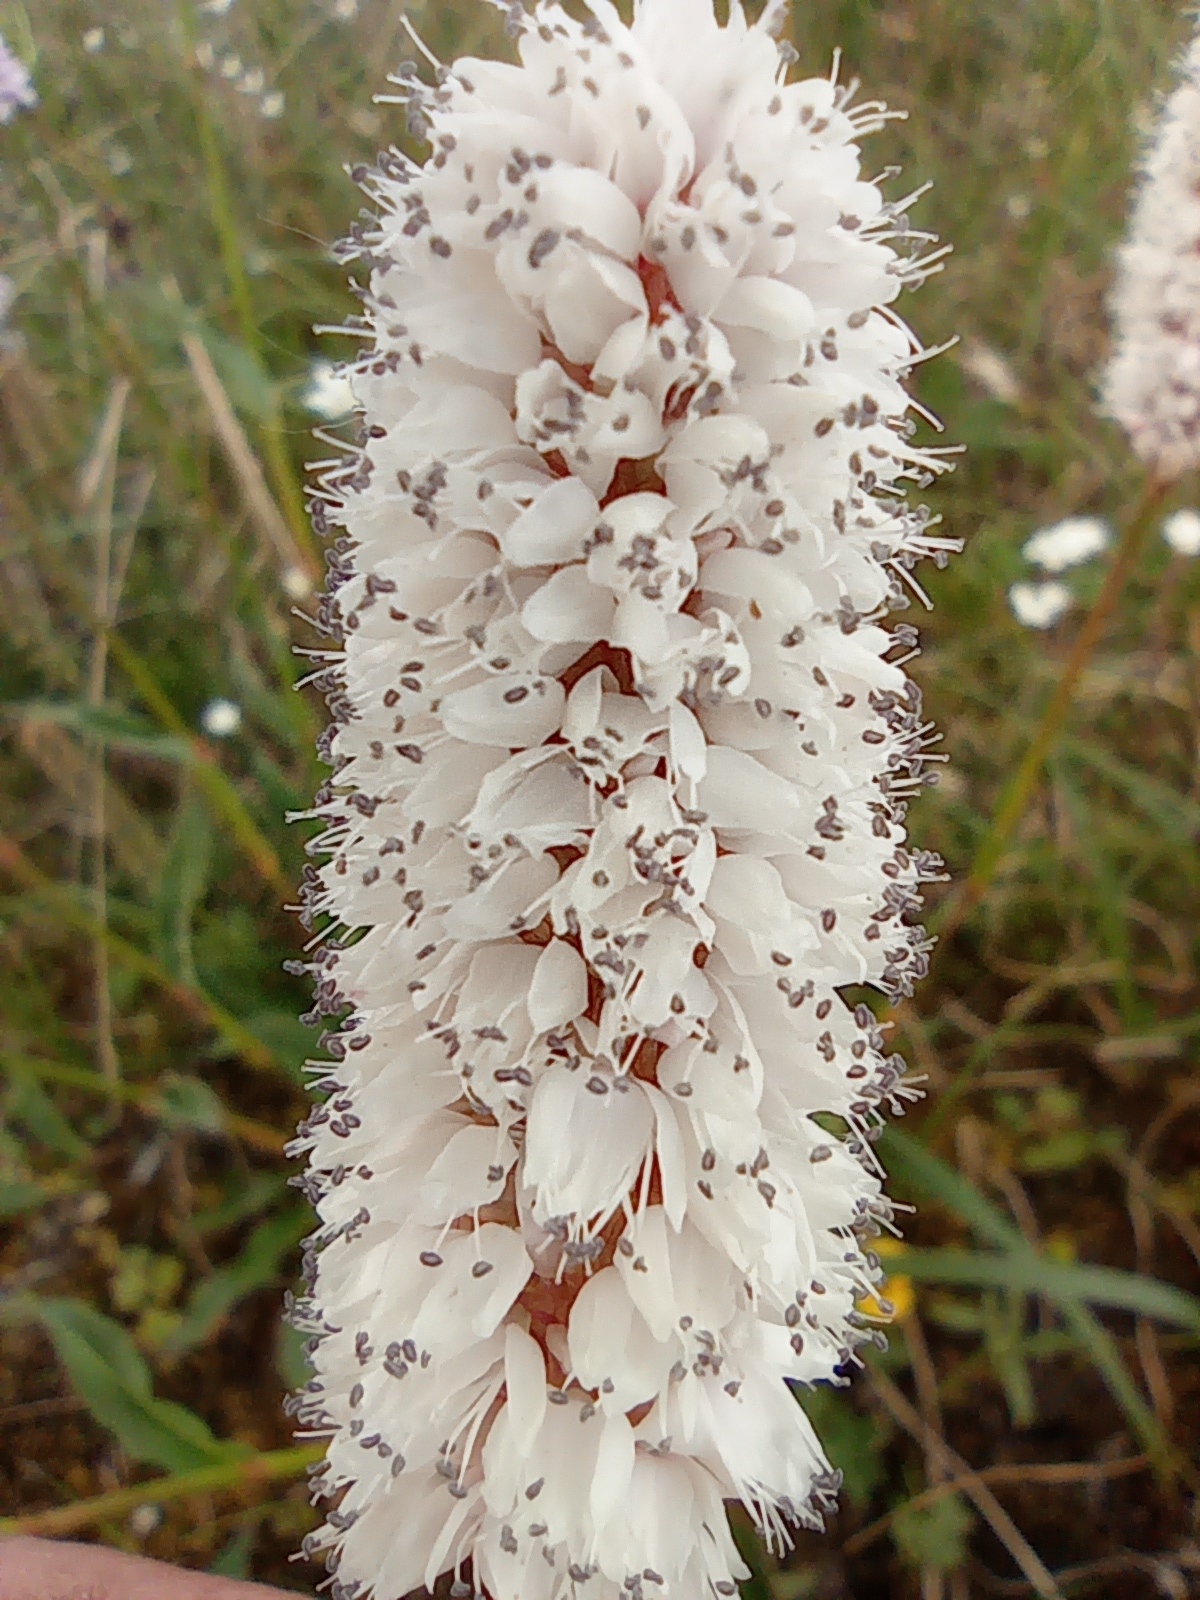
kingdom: Plantae
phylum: Tracheophyta
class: Magnoliopsida
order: Caryophyllales
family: Polygonaceae
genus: Bistorta
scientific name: Bistorta officinalis
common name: Common bistort
